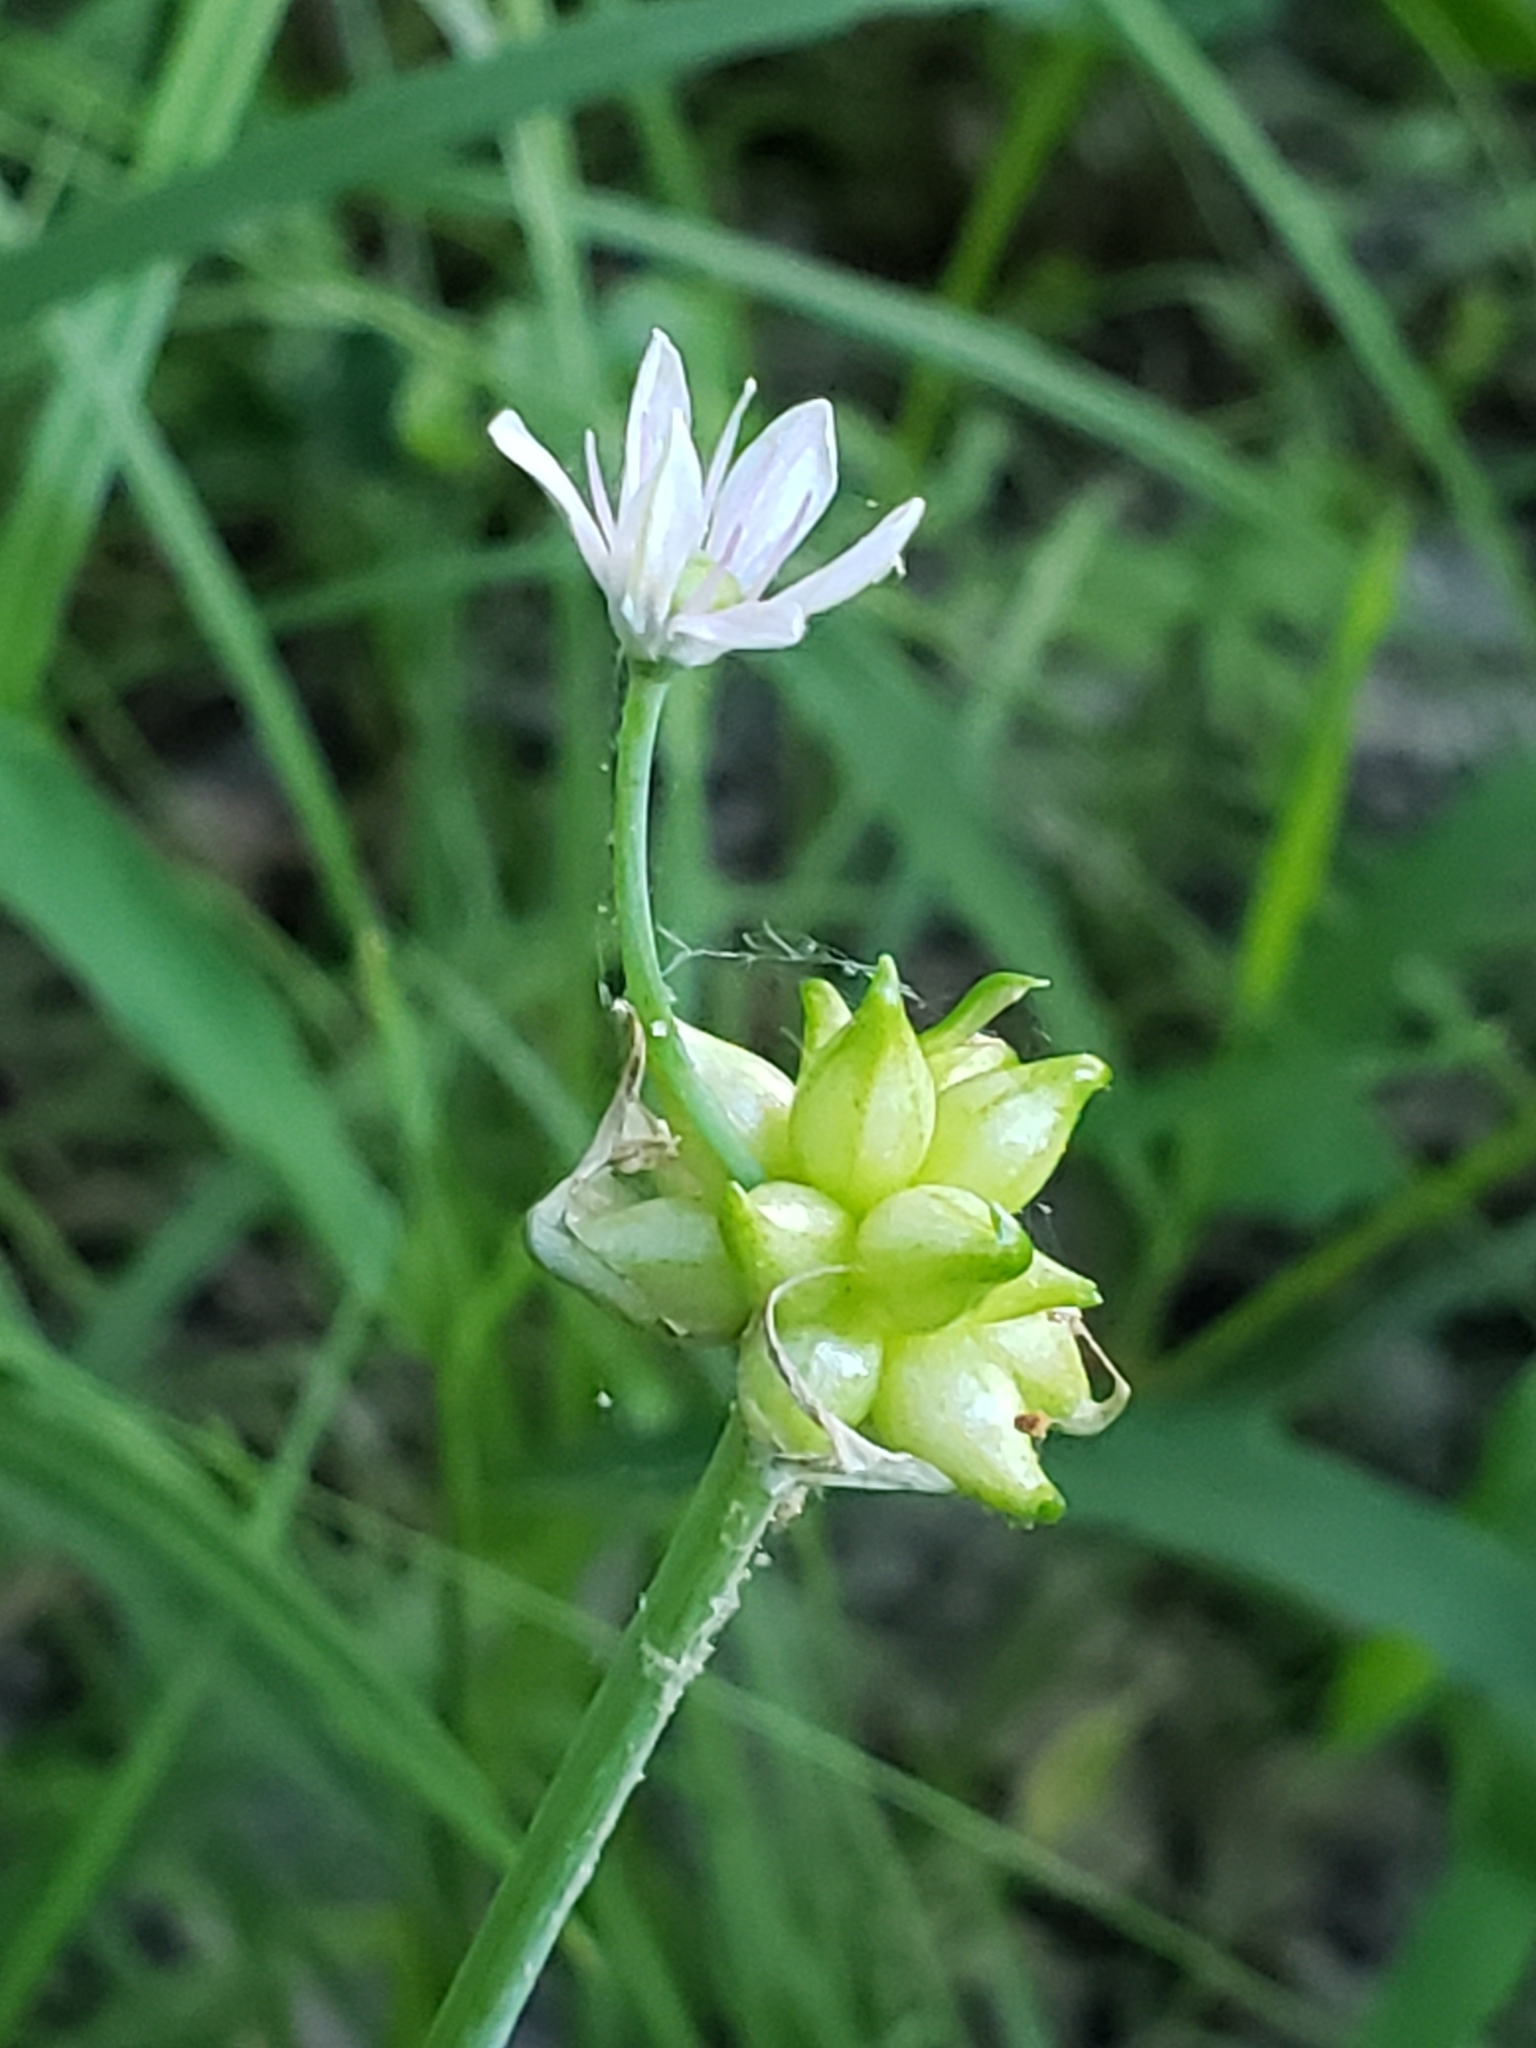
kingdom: Plantae
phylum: Tracheophyta
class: Liliopsida
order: Asparagales
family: Amaryllidaceae
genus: Allium
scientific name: Allium canadense
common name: Meadow garlic
